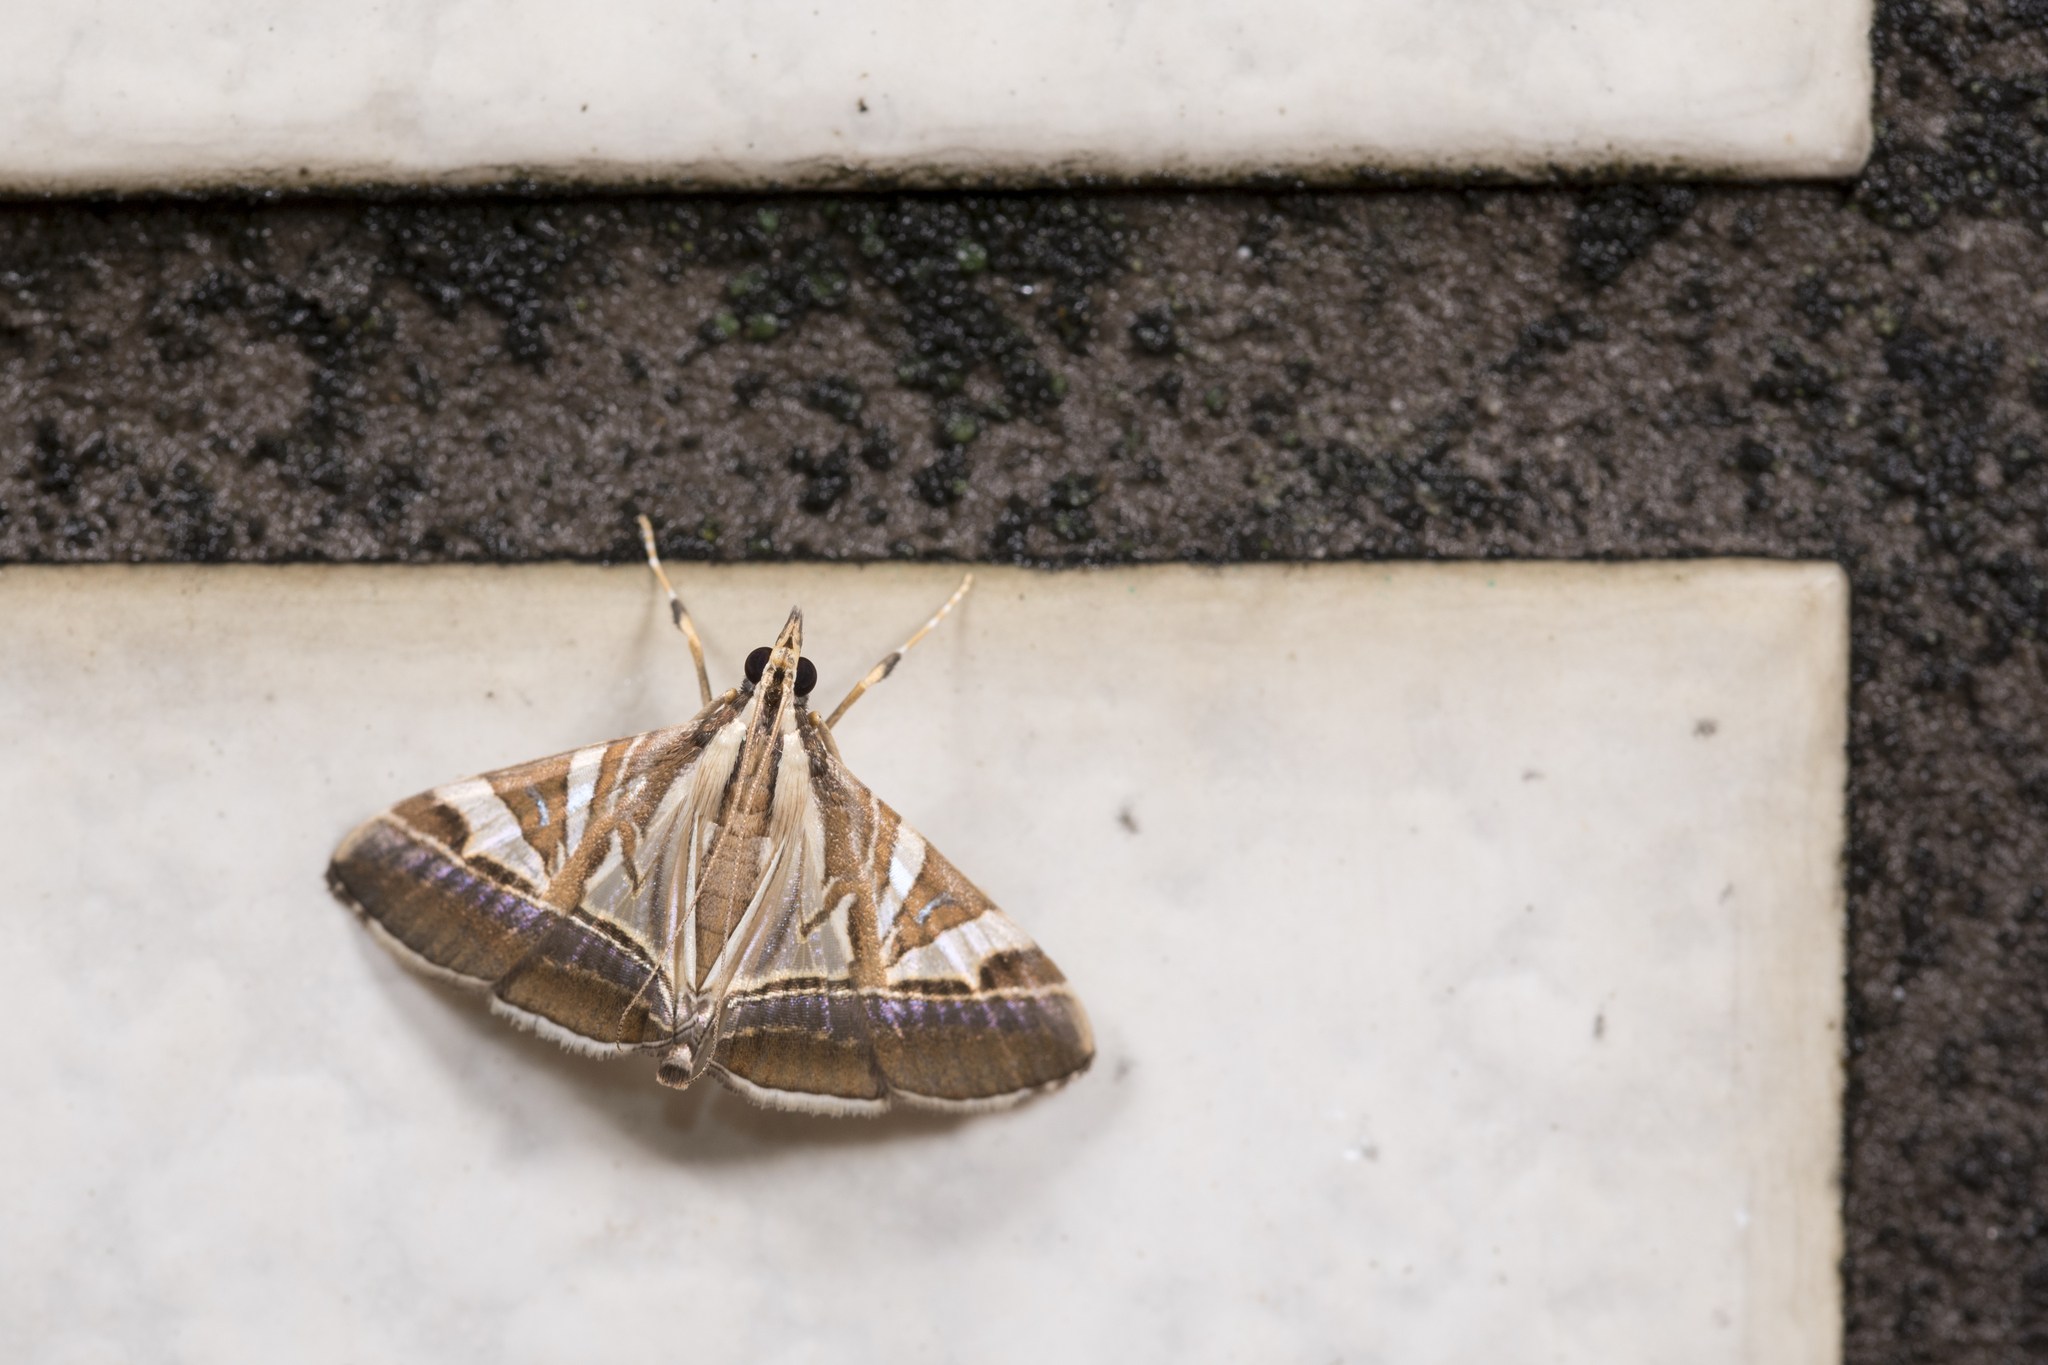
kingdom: Animalia
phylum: Arthropoda
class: Insecta
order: Lepidoptera
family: Crambidae
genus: Agrioglypta
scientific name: Agrioglypta itysalis
